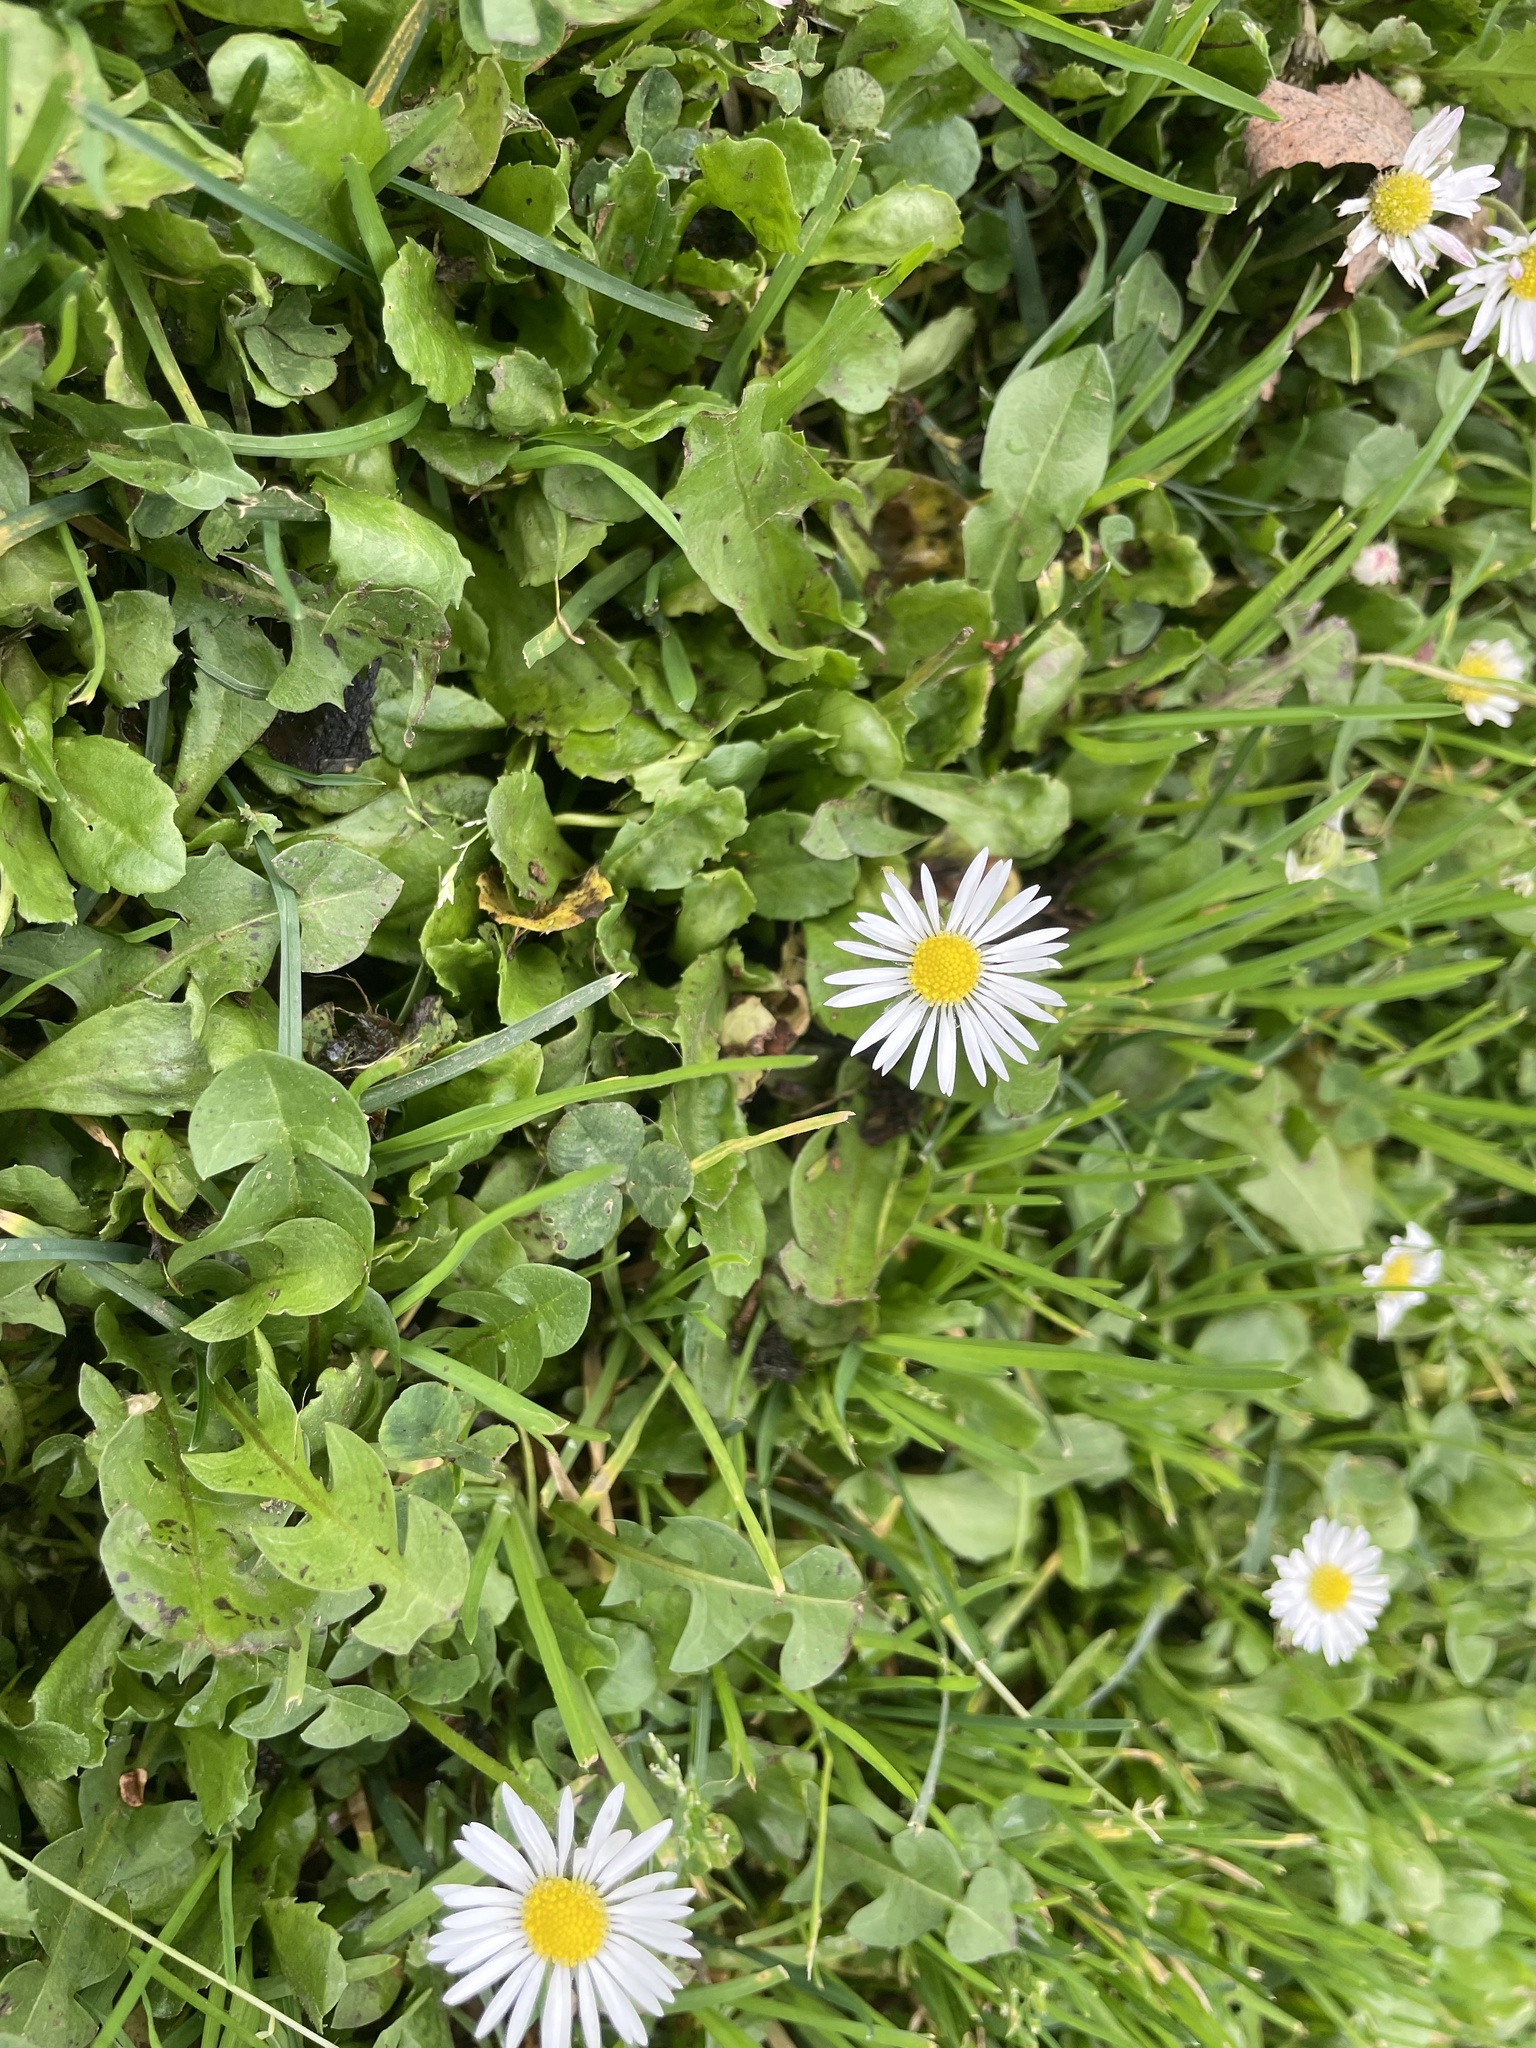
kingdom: Plantae
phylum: Tracheophyta
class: Magnoliopsida
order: Asterales
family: Asteraceae
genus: Bellis
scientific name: Bellis perennis
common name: Lawndaisy
